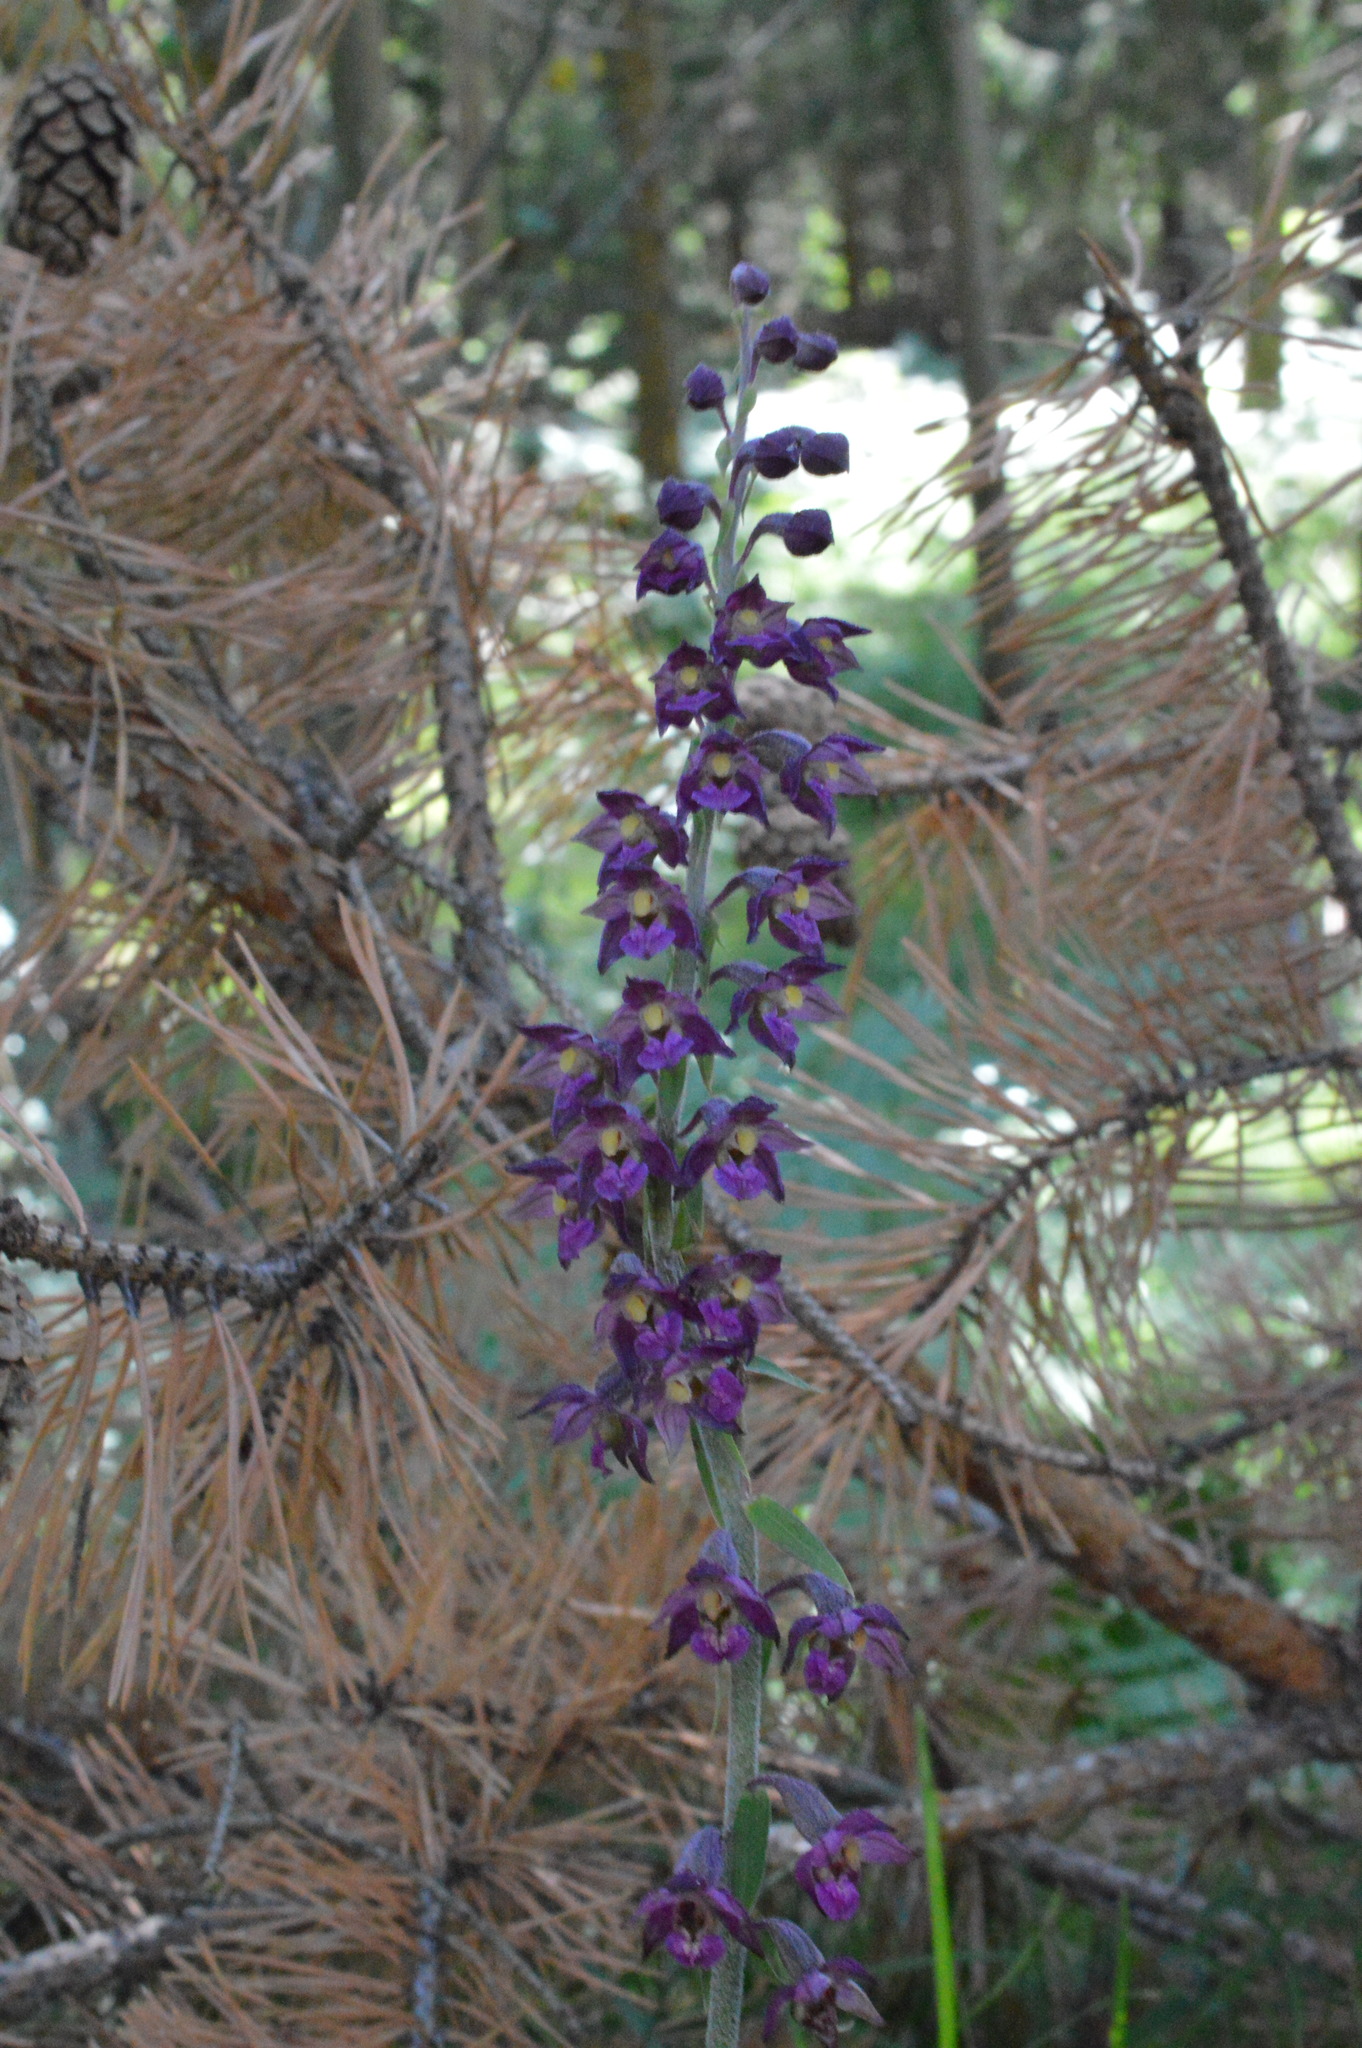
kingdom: Plantae
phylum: Tracheophyta
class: Liliopsida
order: Asparagales
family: Orchidaceae
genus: Epipactis
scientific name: Epipactis atrorubens
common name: Dark-red helleborine
